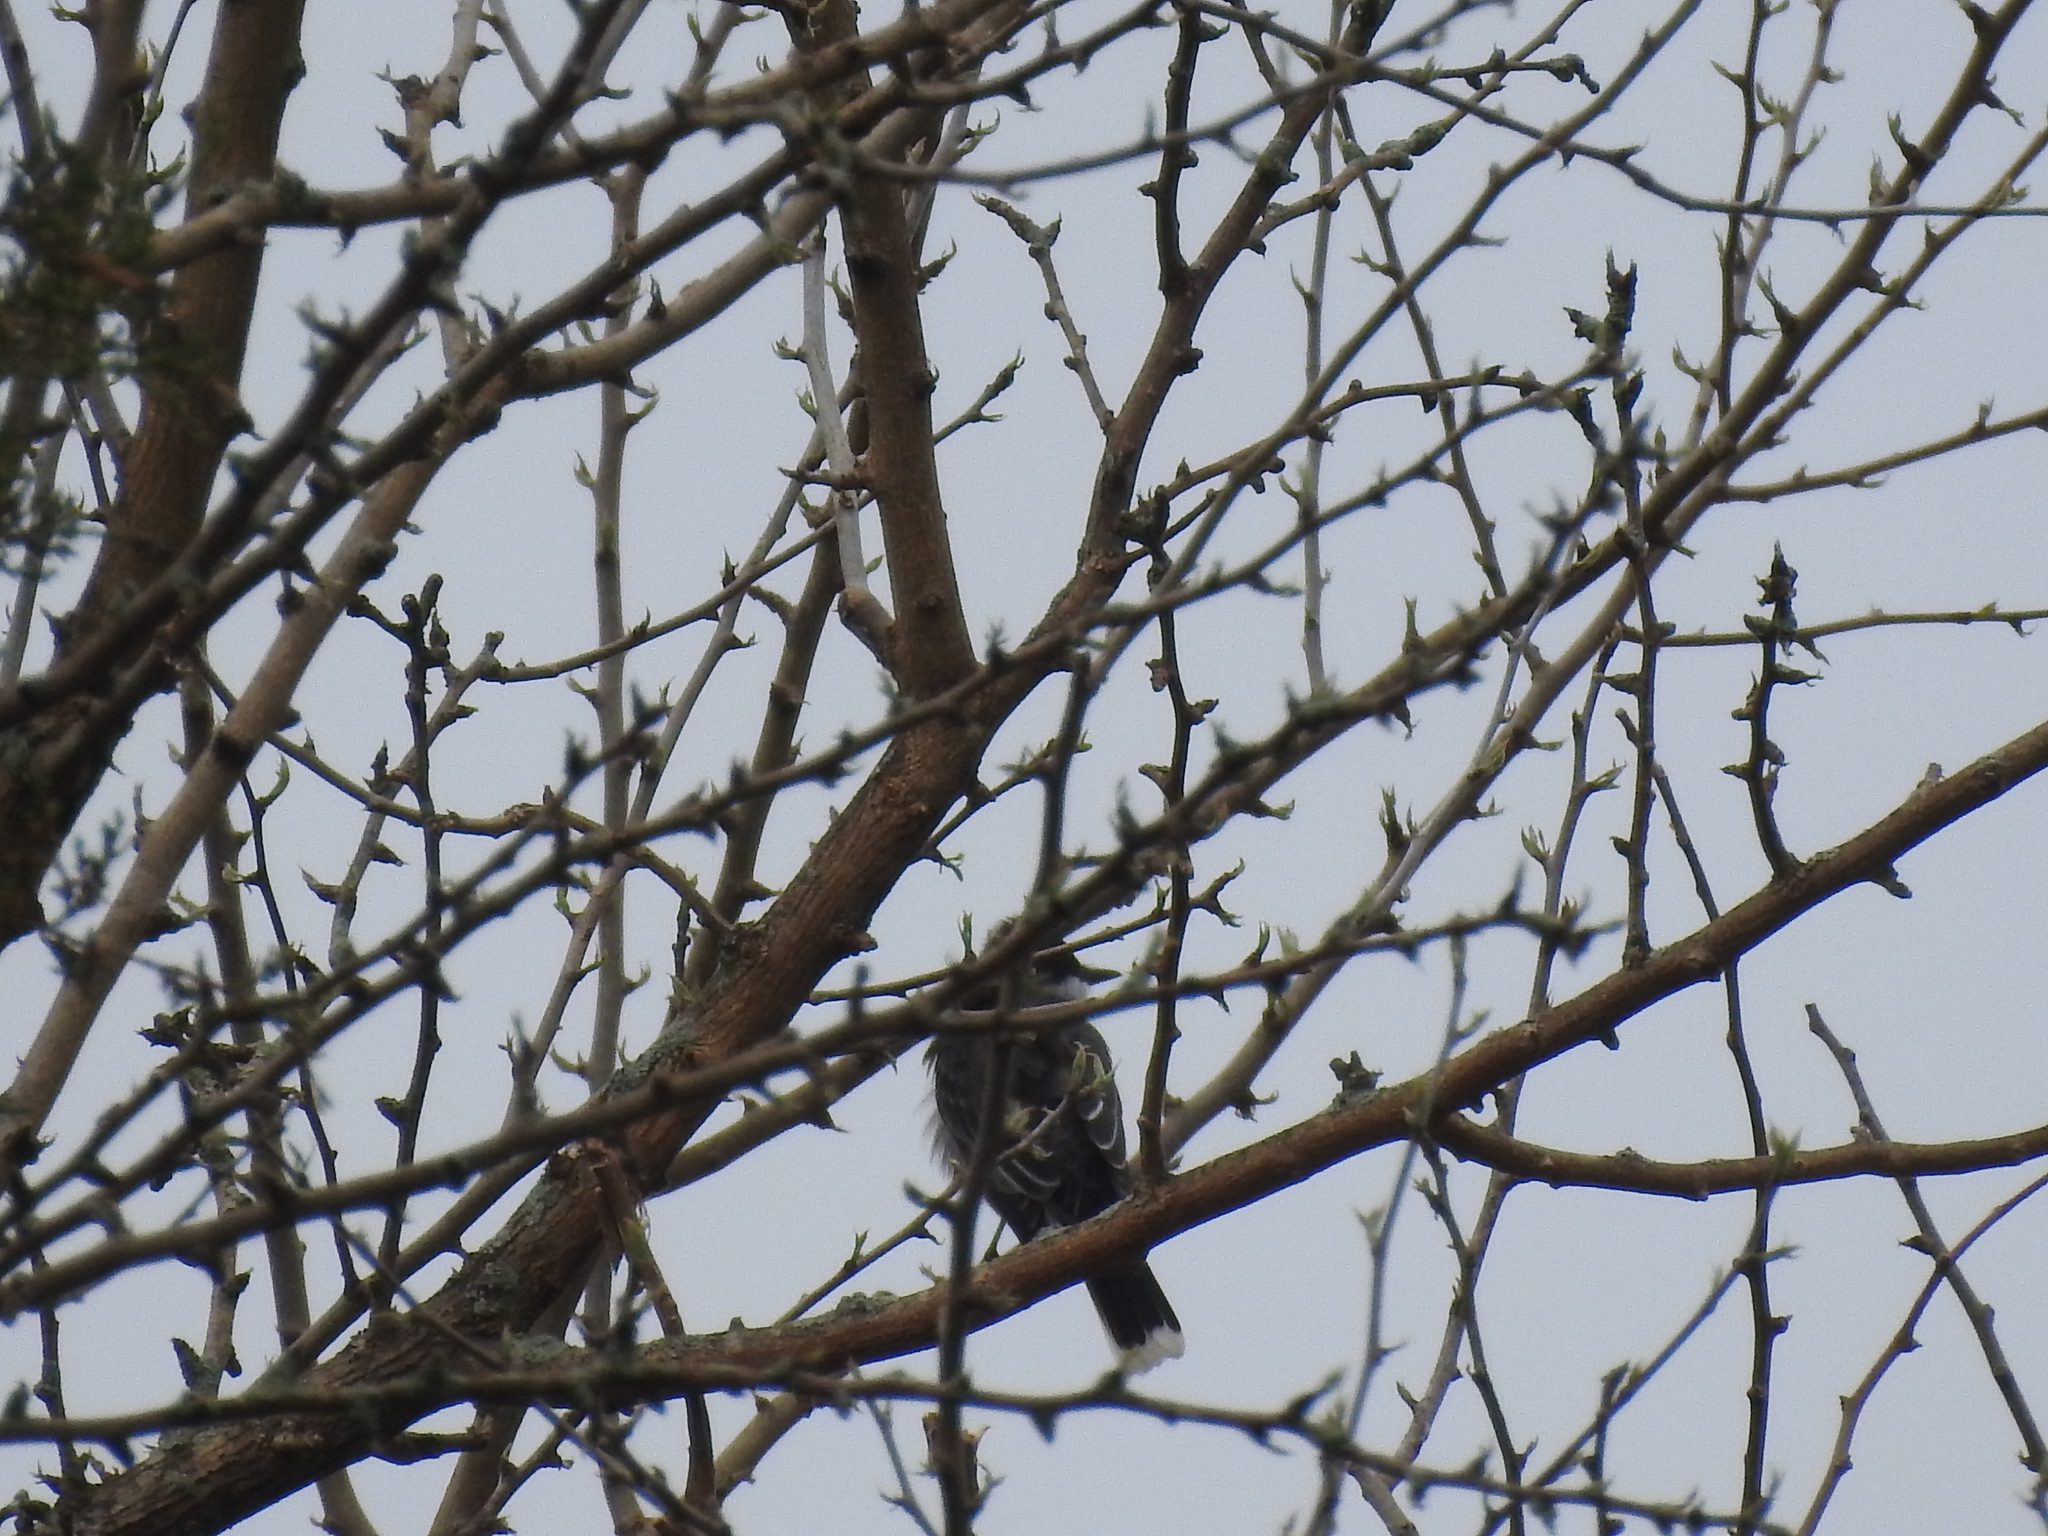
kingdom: Animalia
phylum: Chordata
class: Aves
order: Passeriformes
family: Tyrannidae
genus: Tyrannus
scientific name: Tyrannus tyrannus
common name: Eastern kingbird
